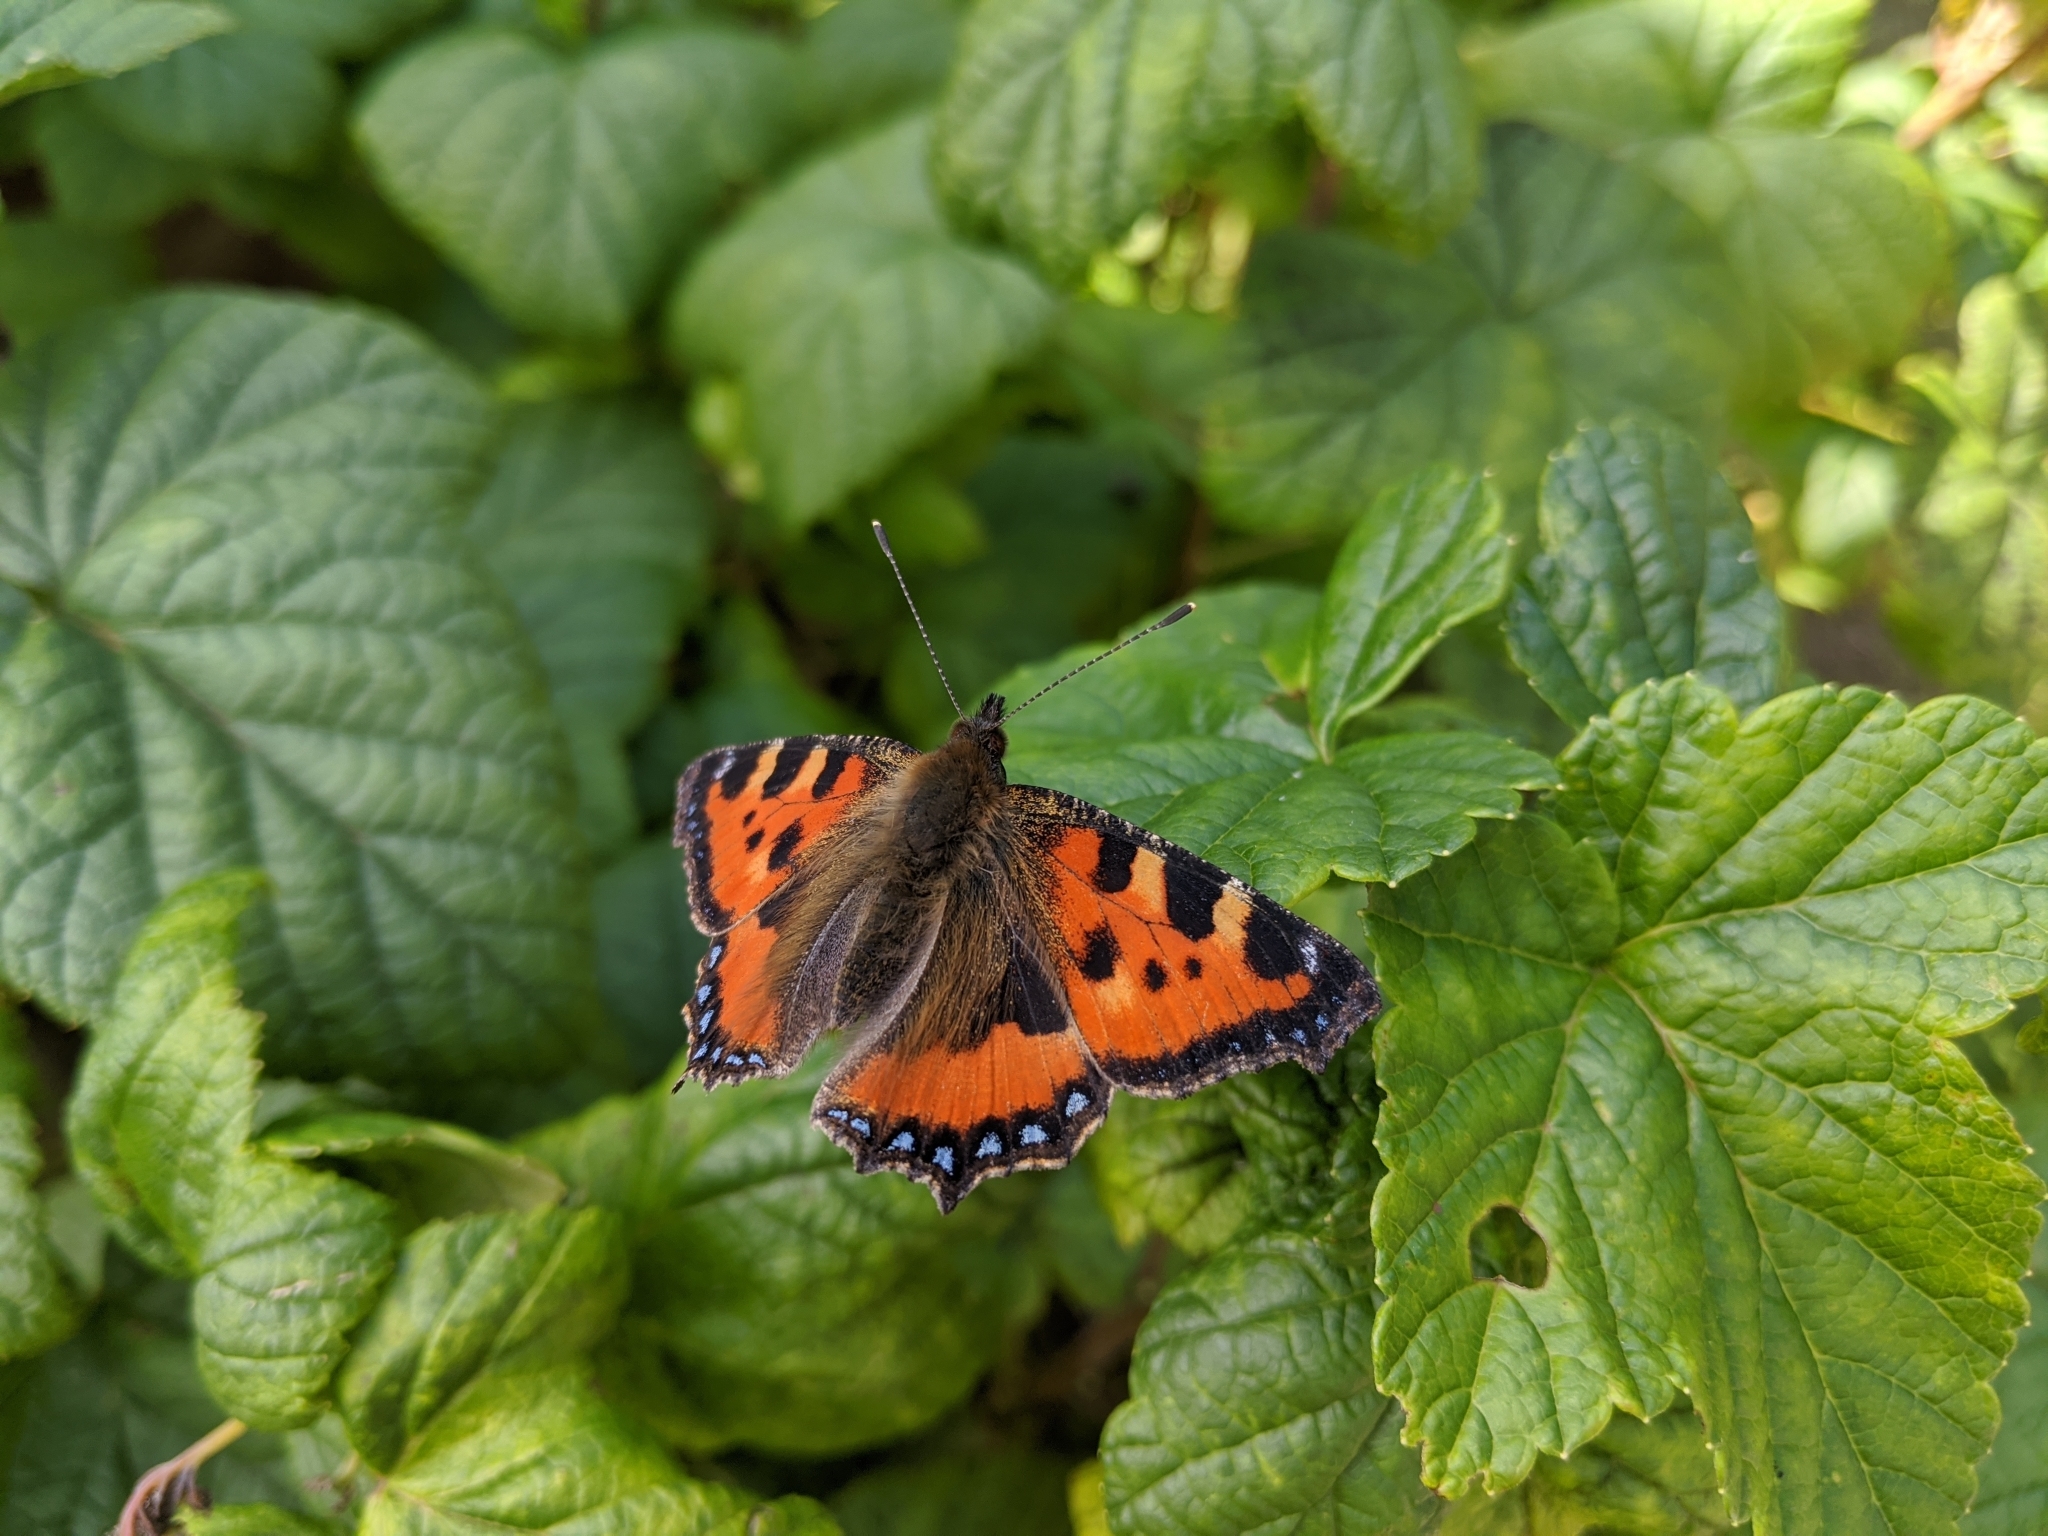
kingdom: Animalia
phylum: Arthropoda
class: Insecta
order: Lepidoptera
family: Nymphalidae
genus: Aglais
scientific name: Aglais urticae
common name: Small tortoiseshell
